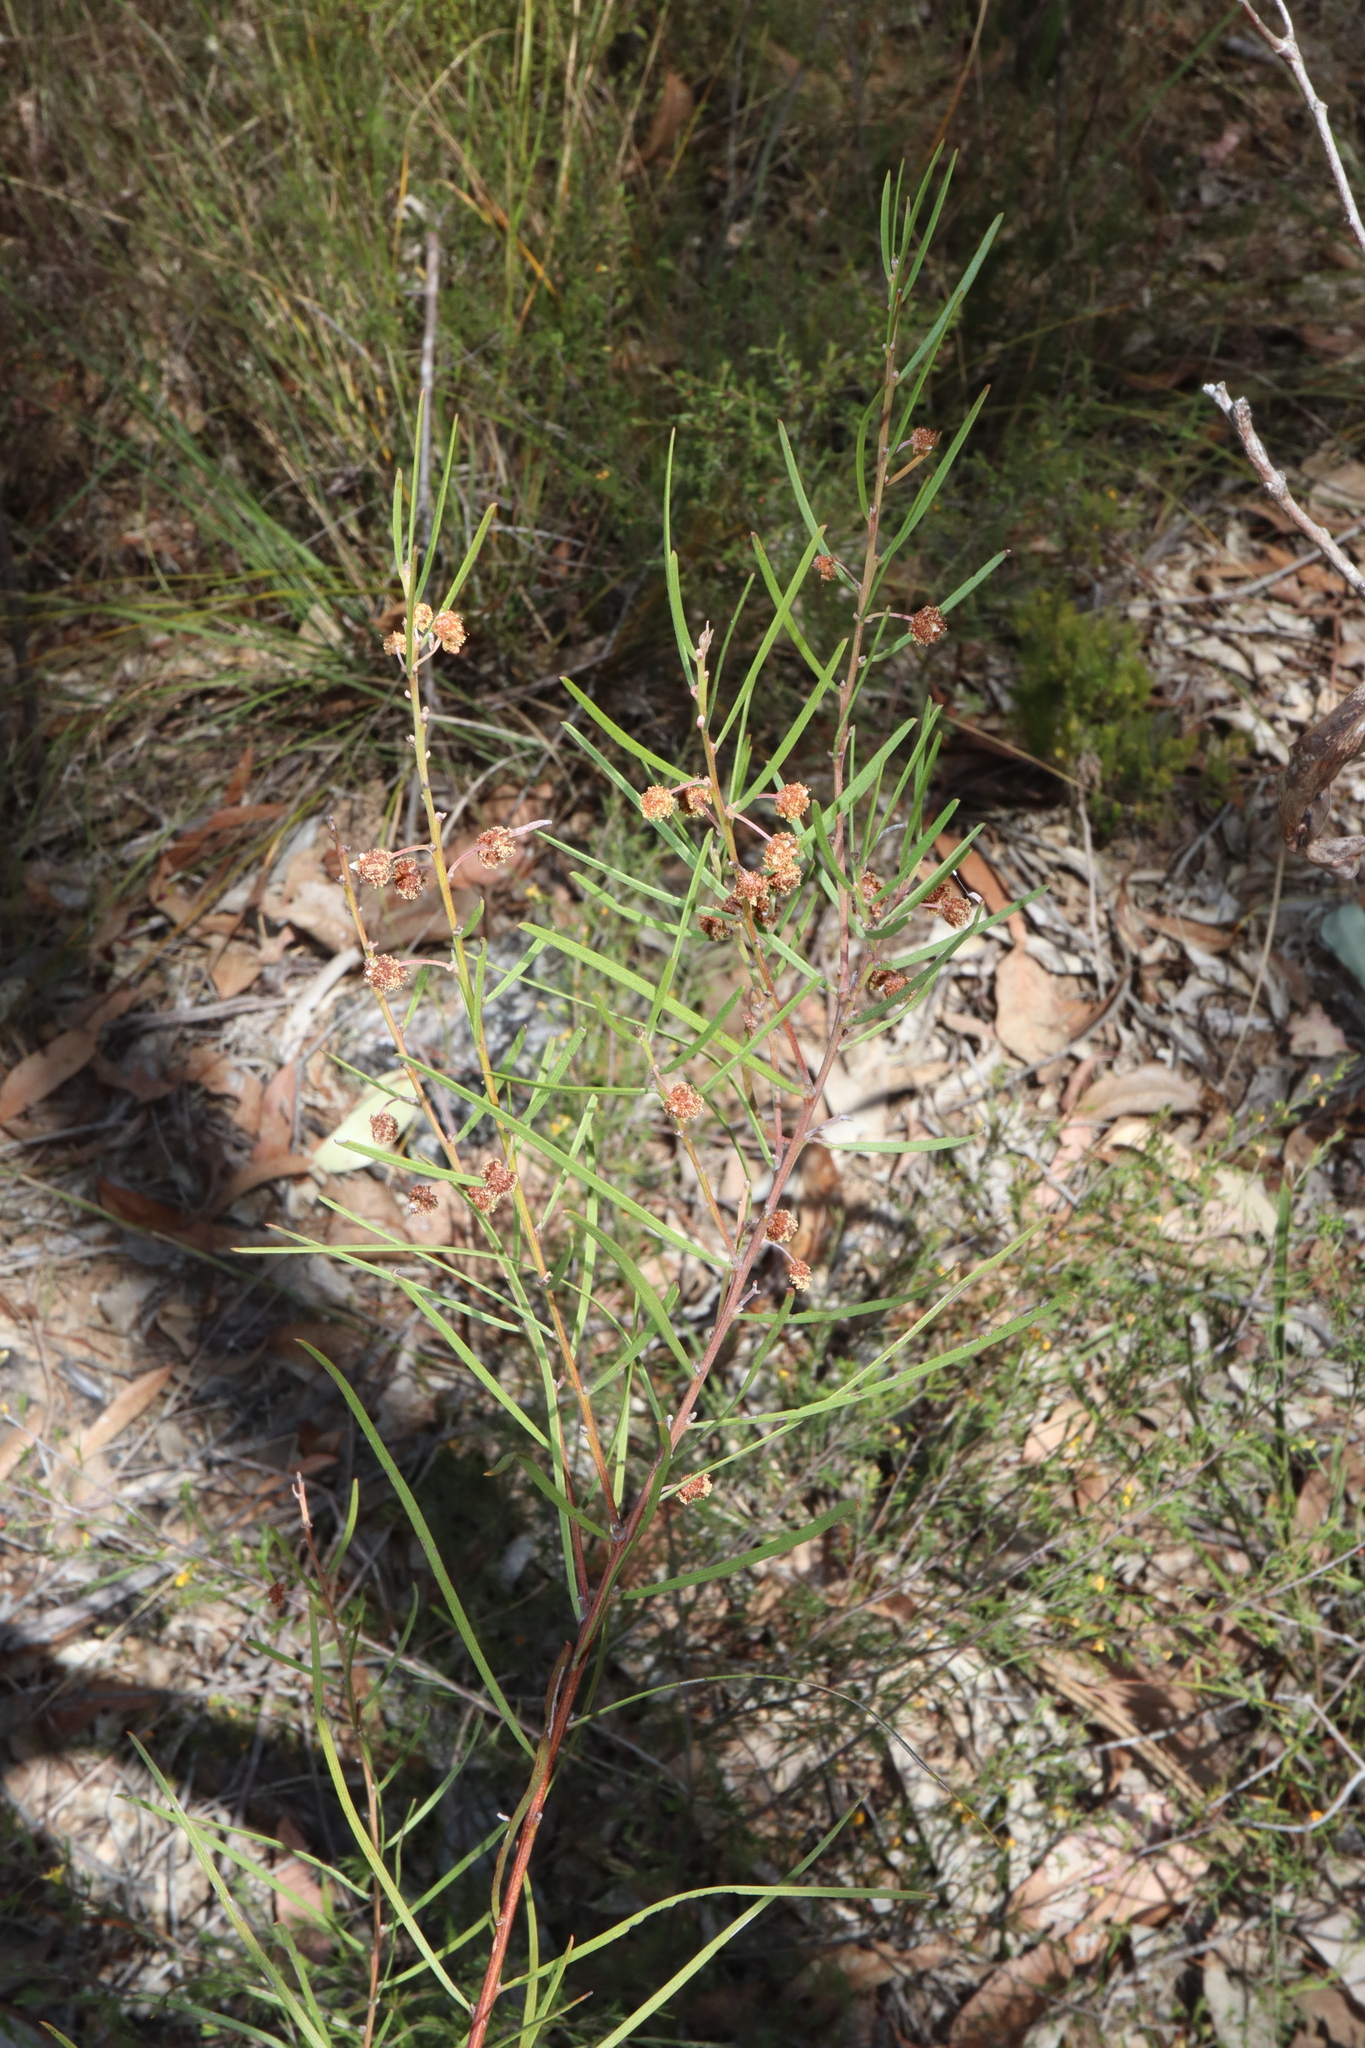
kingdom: Plantae
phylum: Tracheophyta
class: Magnoliopsida
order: Fabales
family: Fabaceae
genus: Acacia
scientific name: Acacia elongata
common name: Swamp wattle
